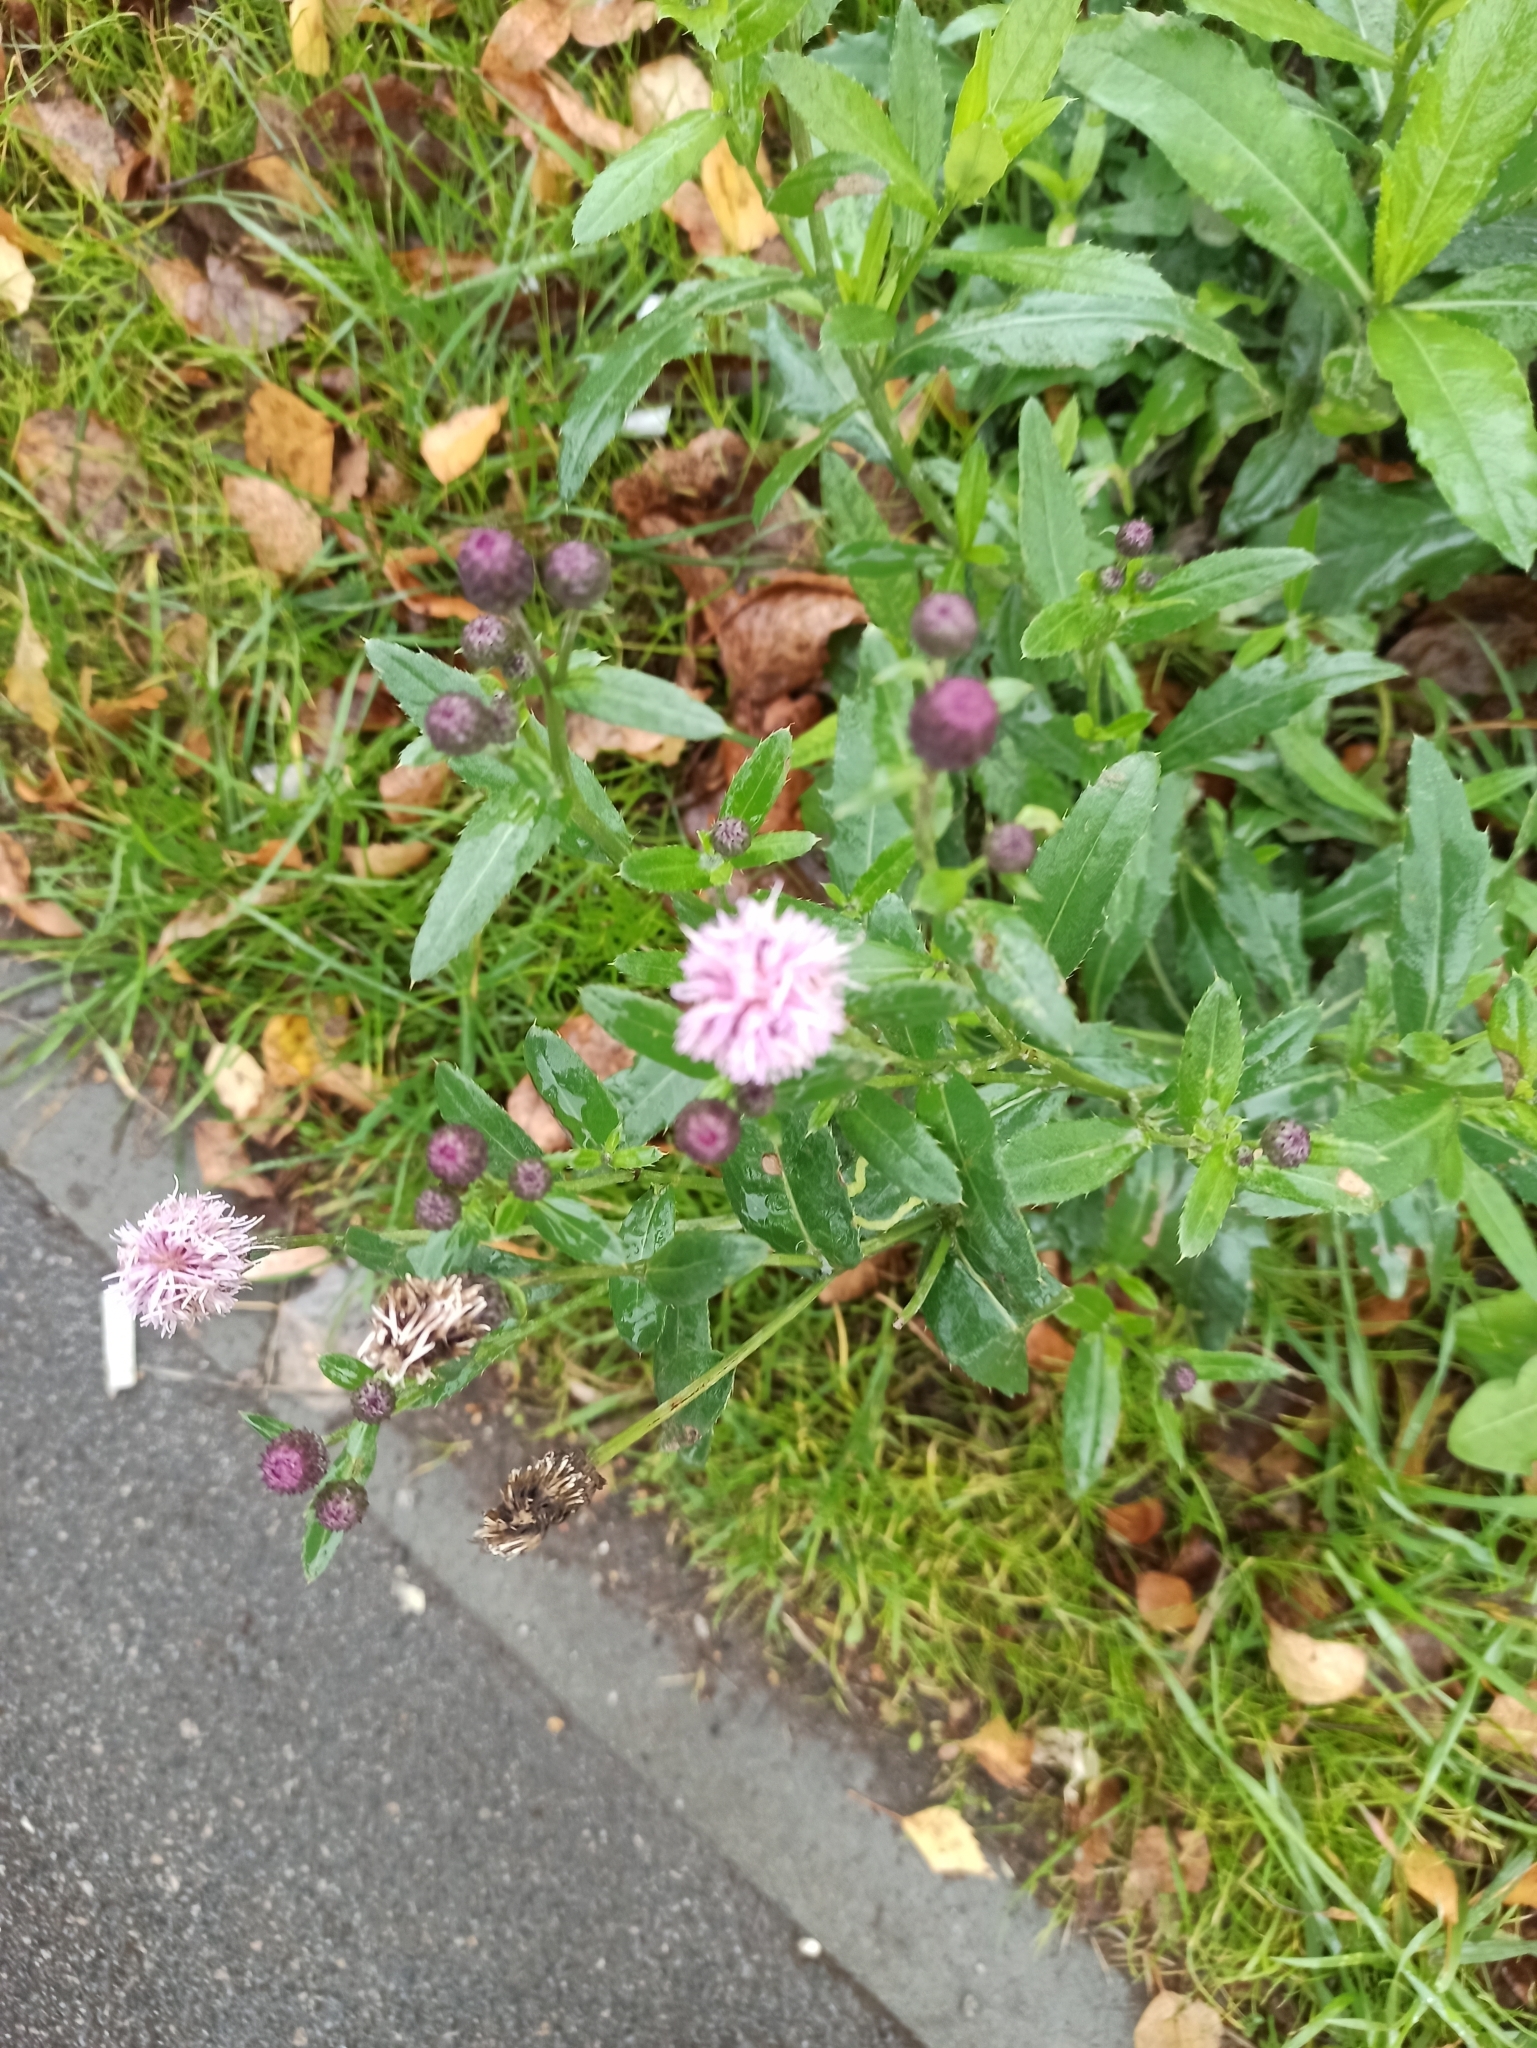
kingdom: Plantae
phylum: Tracheophyta
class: Magnoliopsida
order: Asterales
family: Asteraceae
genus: Cirsium
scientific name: Cirsium arvense
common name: Creeping thistle
